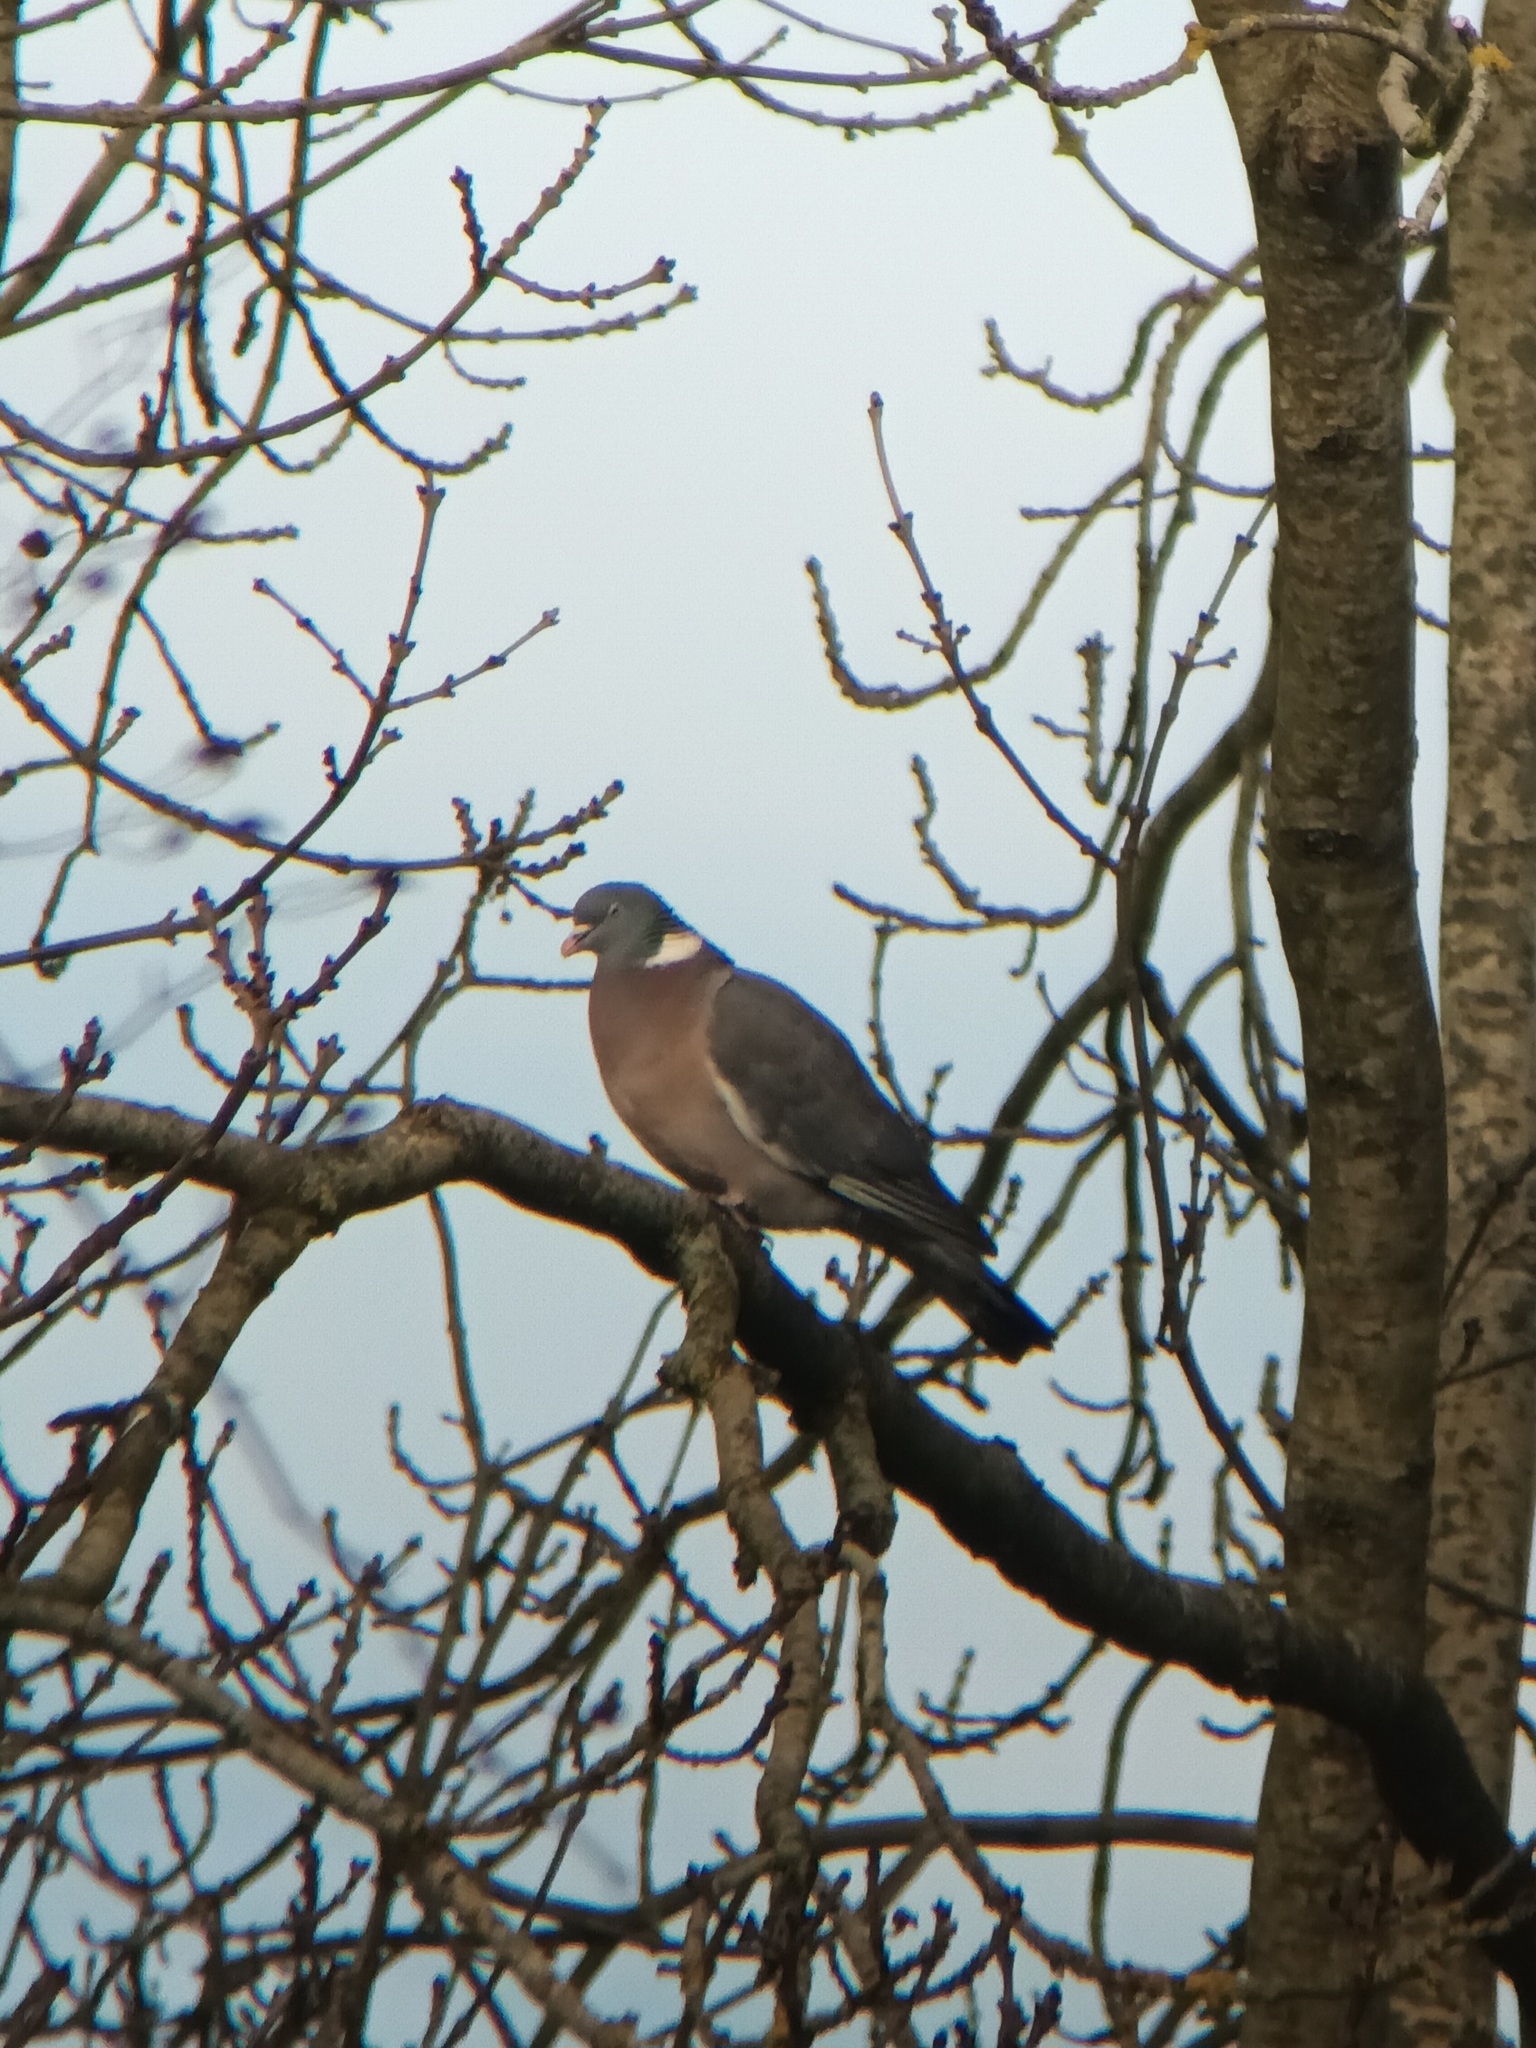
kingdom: Animalia
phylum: Chordata
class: Aves
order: Columbiformes
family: Columbidae
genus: Columba
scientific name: Columba palumbus
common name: Common wood pigeon
